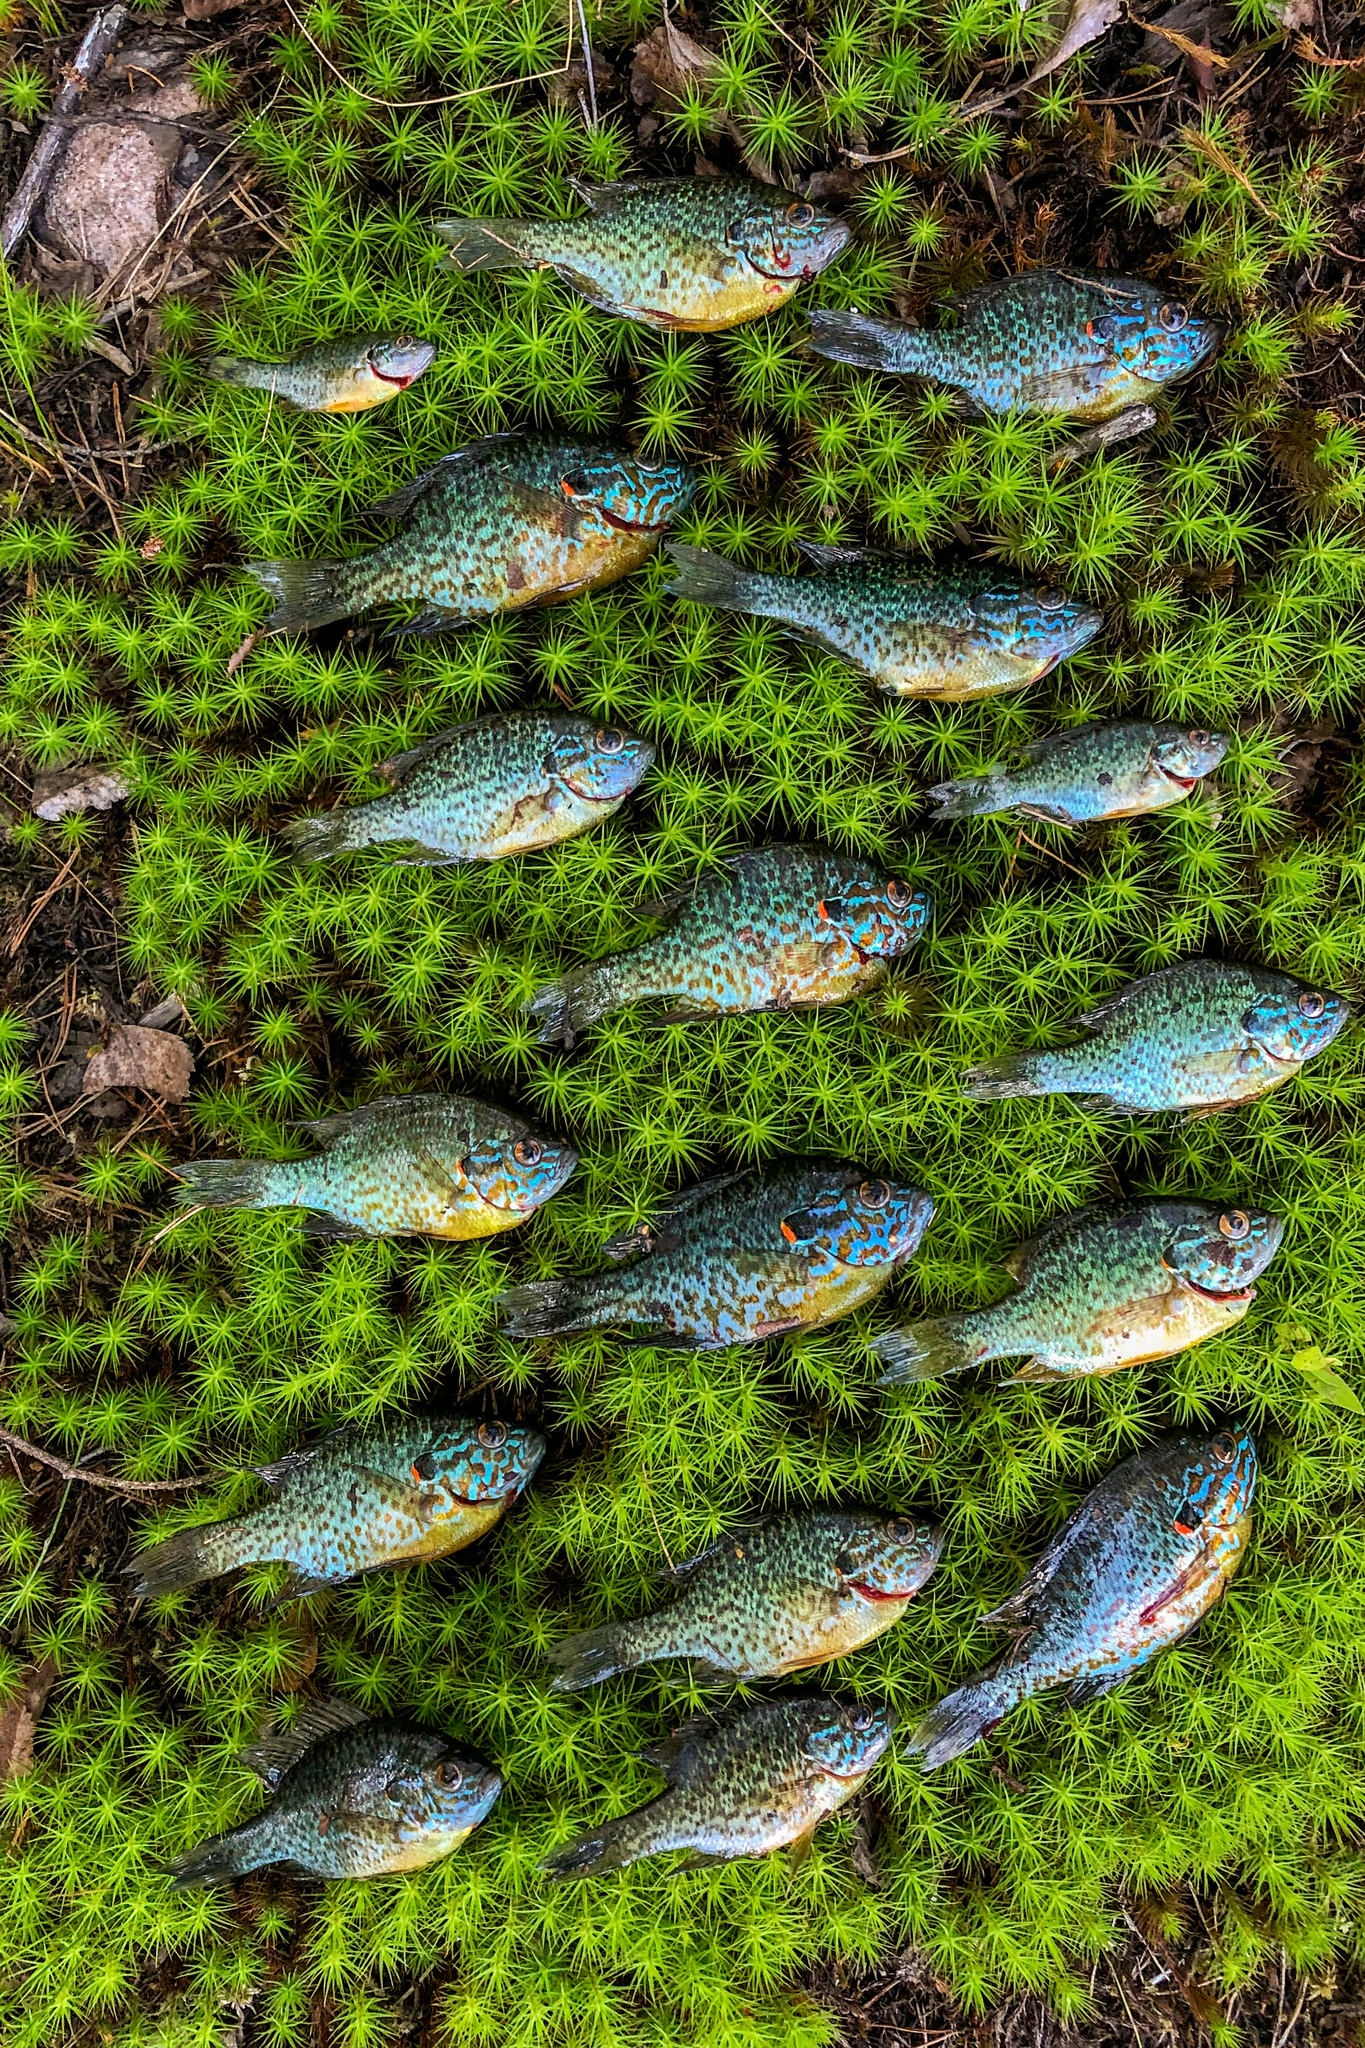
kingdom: Animalia
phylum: Chordata
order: Perciformes
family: Centrarchidae
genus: Lepomis
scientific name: Lepomis gibbosus
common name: Pumpkinseed
